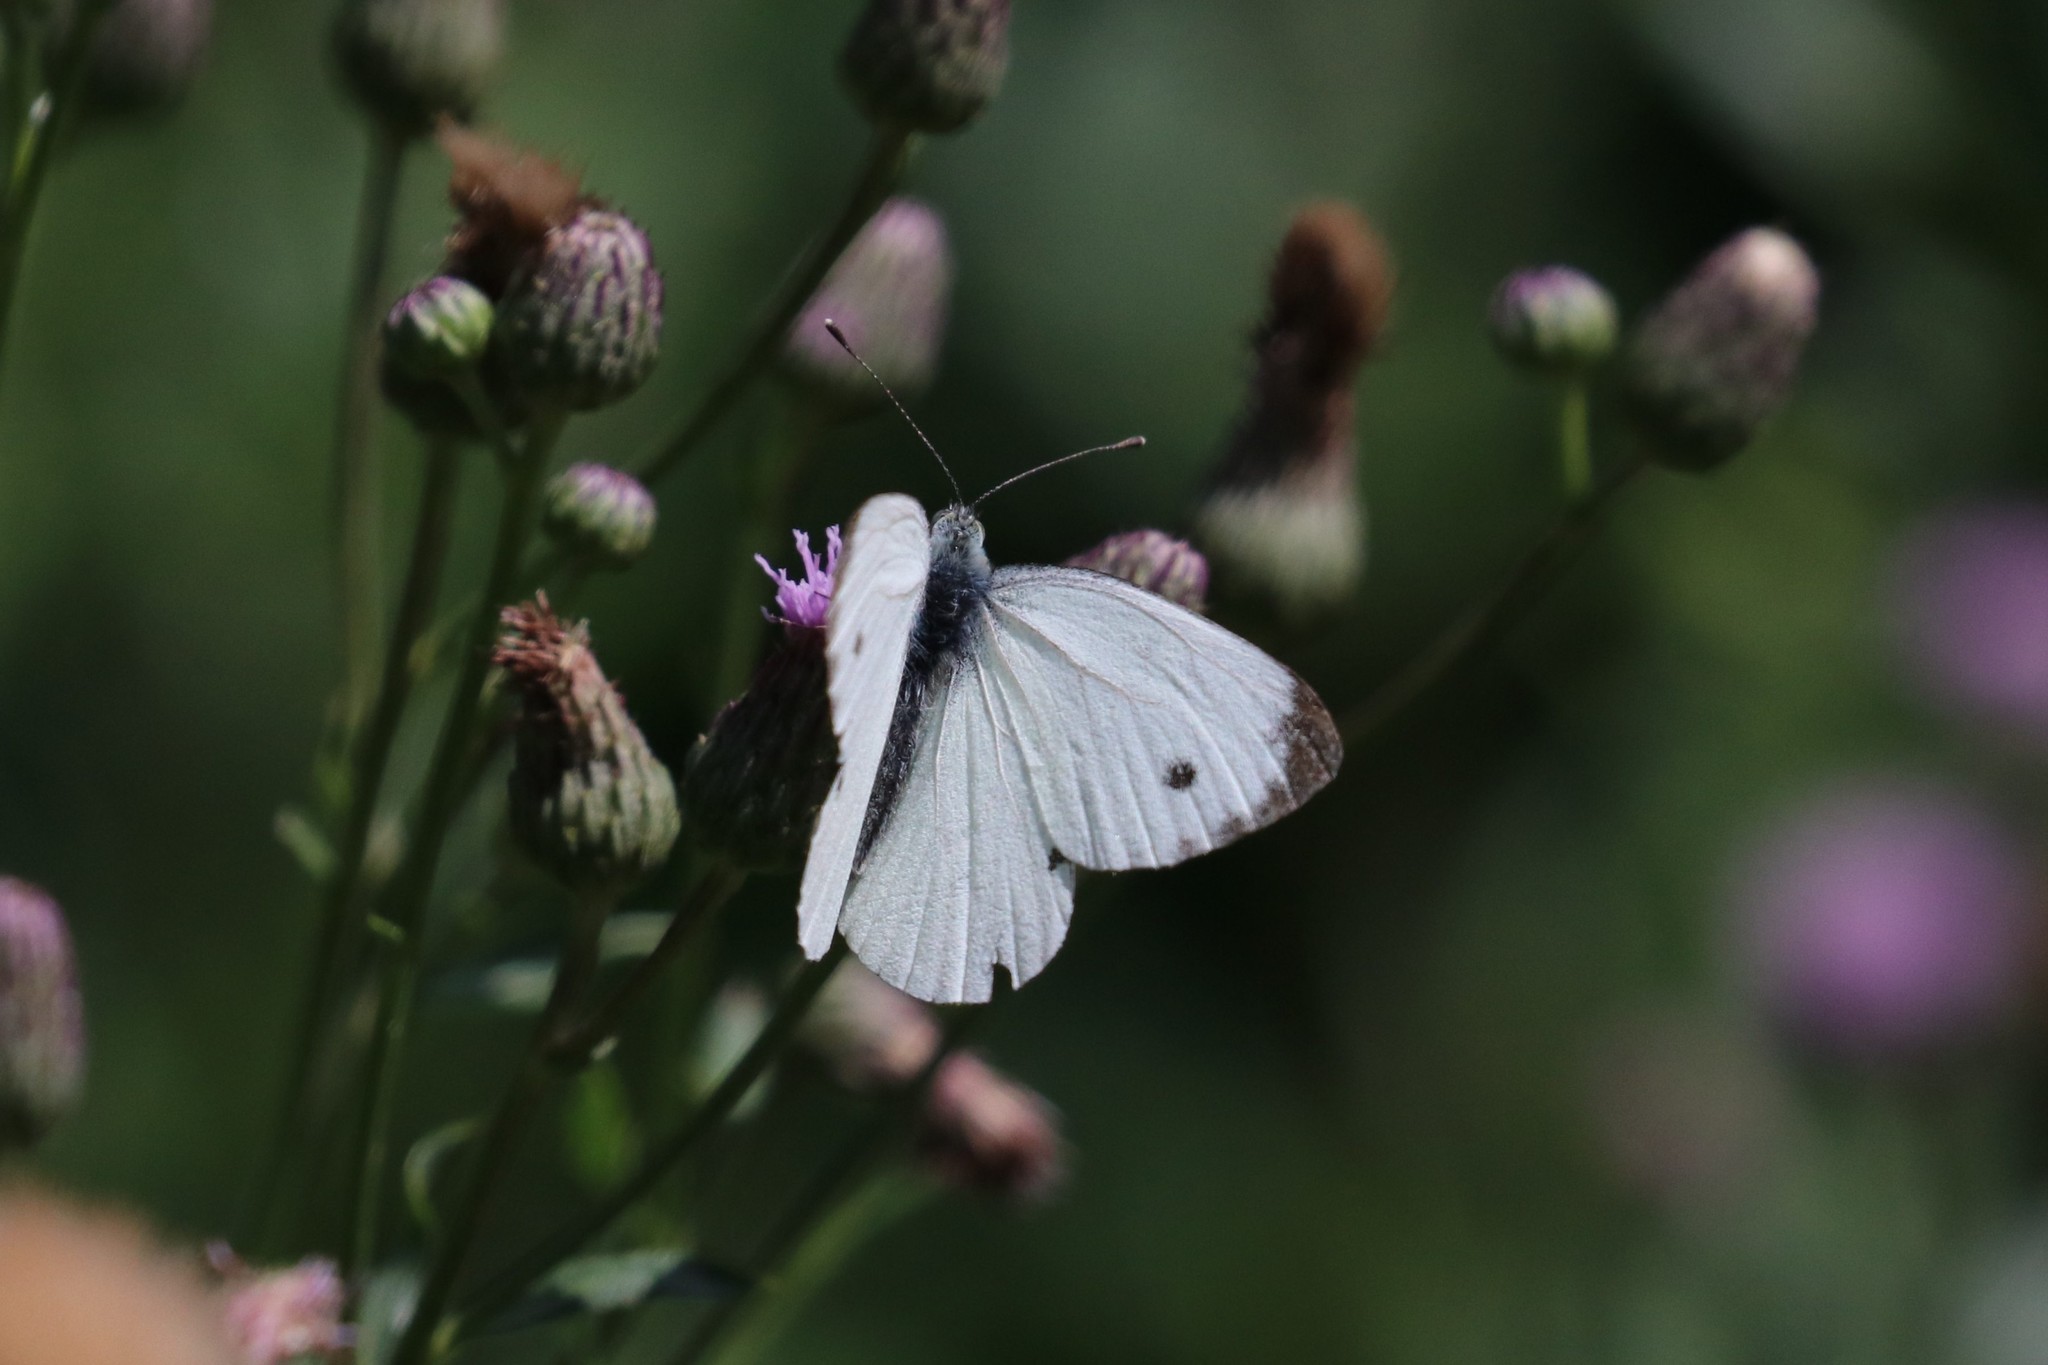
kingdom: Animalia
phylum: Arthropoda
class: Insecta
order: Lepidoptera
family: Pieridae
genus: Pieris
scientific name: Pieris rapae
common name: Small white
